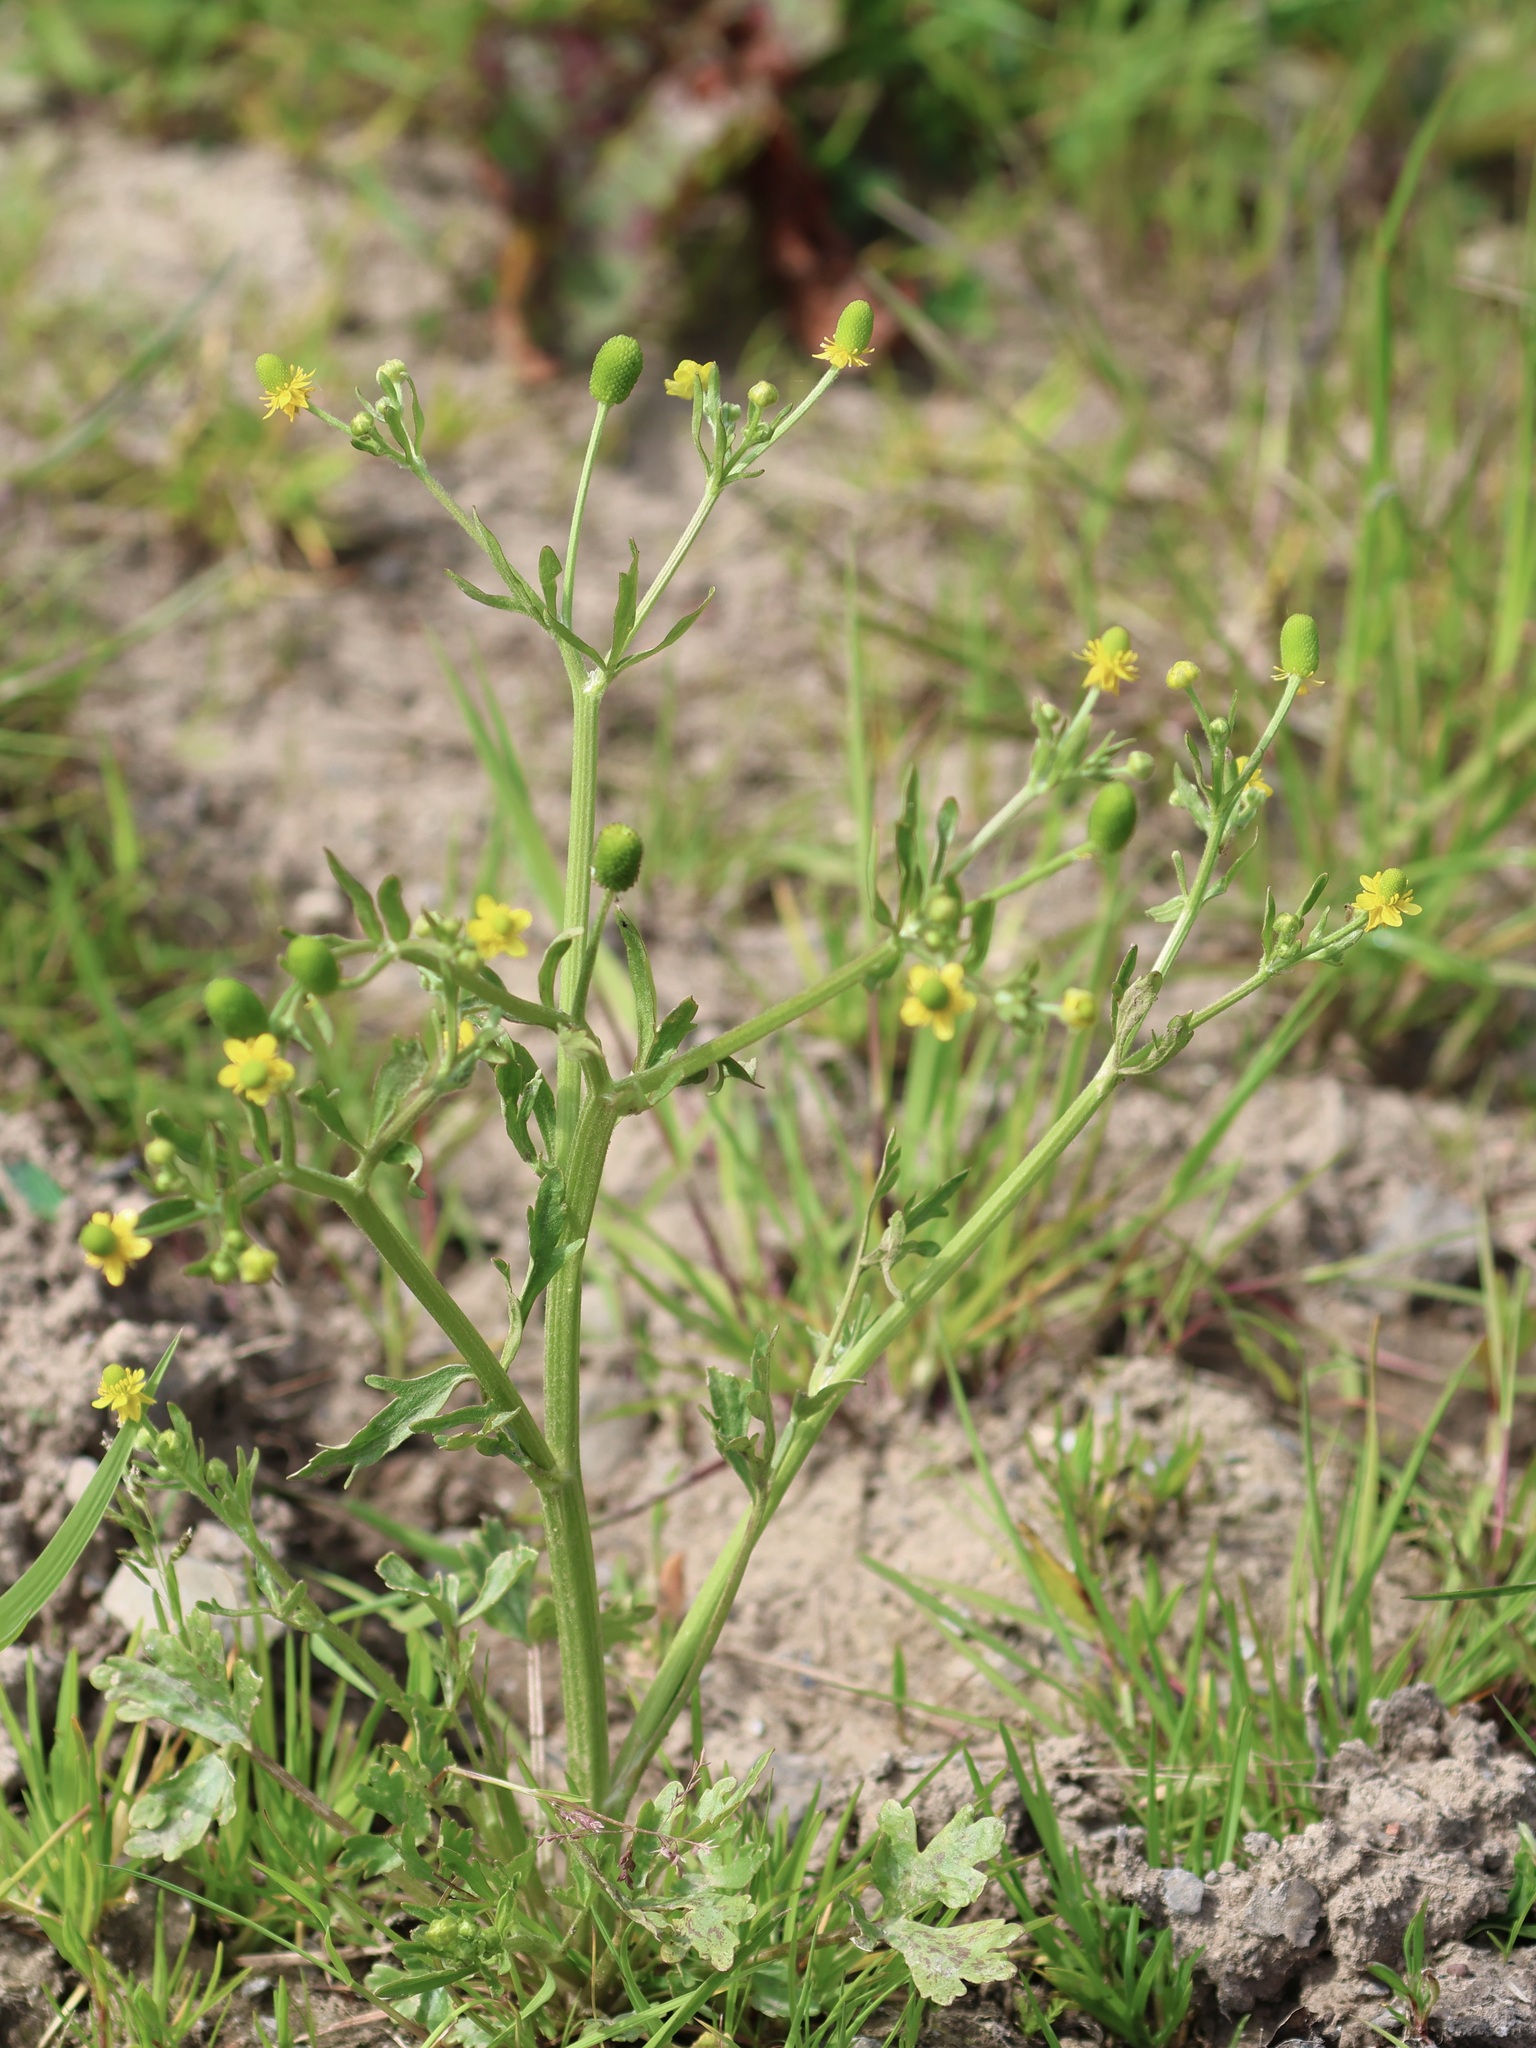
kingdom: Plantae
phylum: Tracheophyta
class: Magnoliopsida
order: Ranunculales
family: Ranunculaceae
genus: Ranunculus
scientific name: Ranunculus sceleratus
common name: Celery-leaved buttercup
